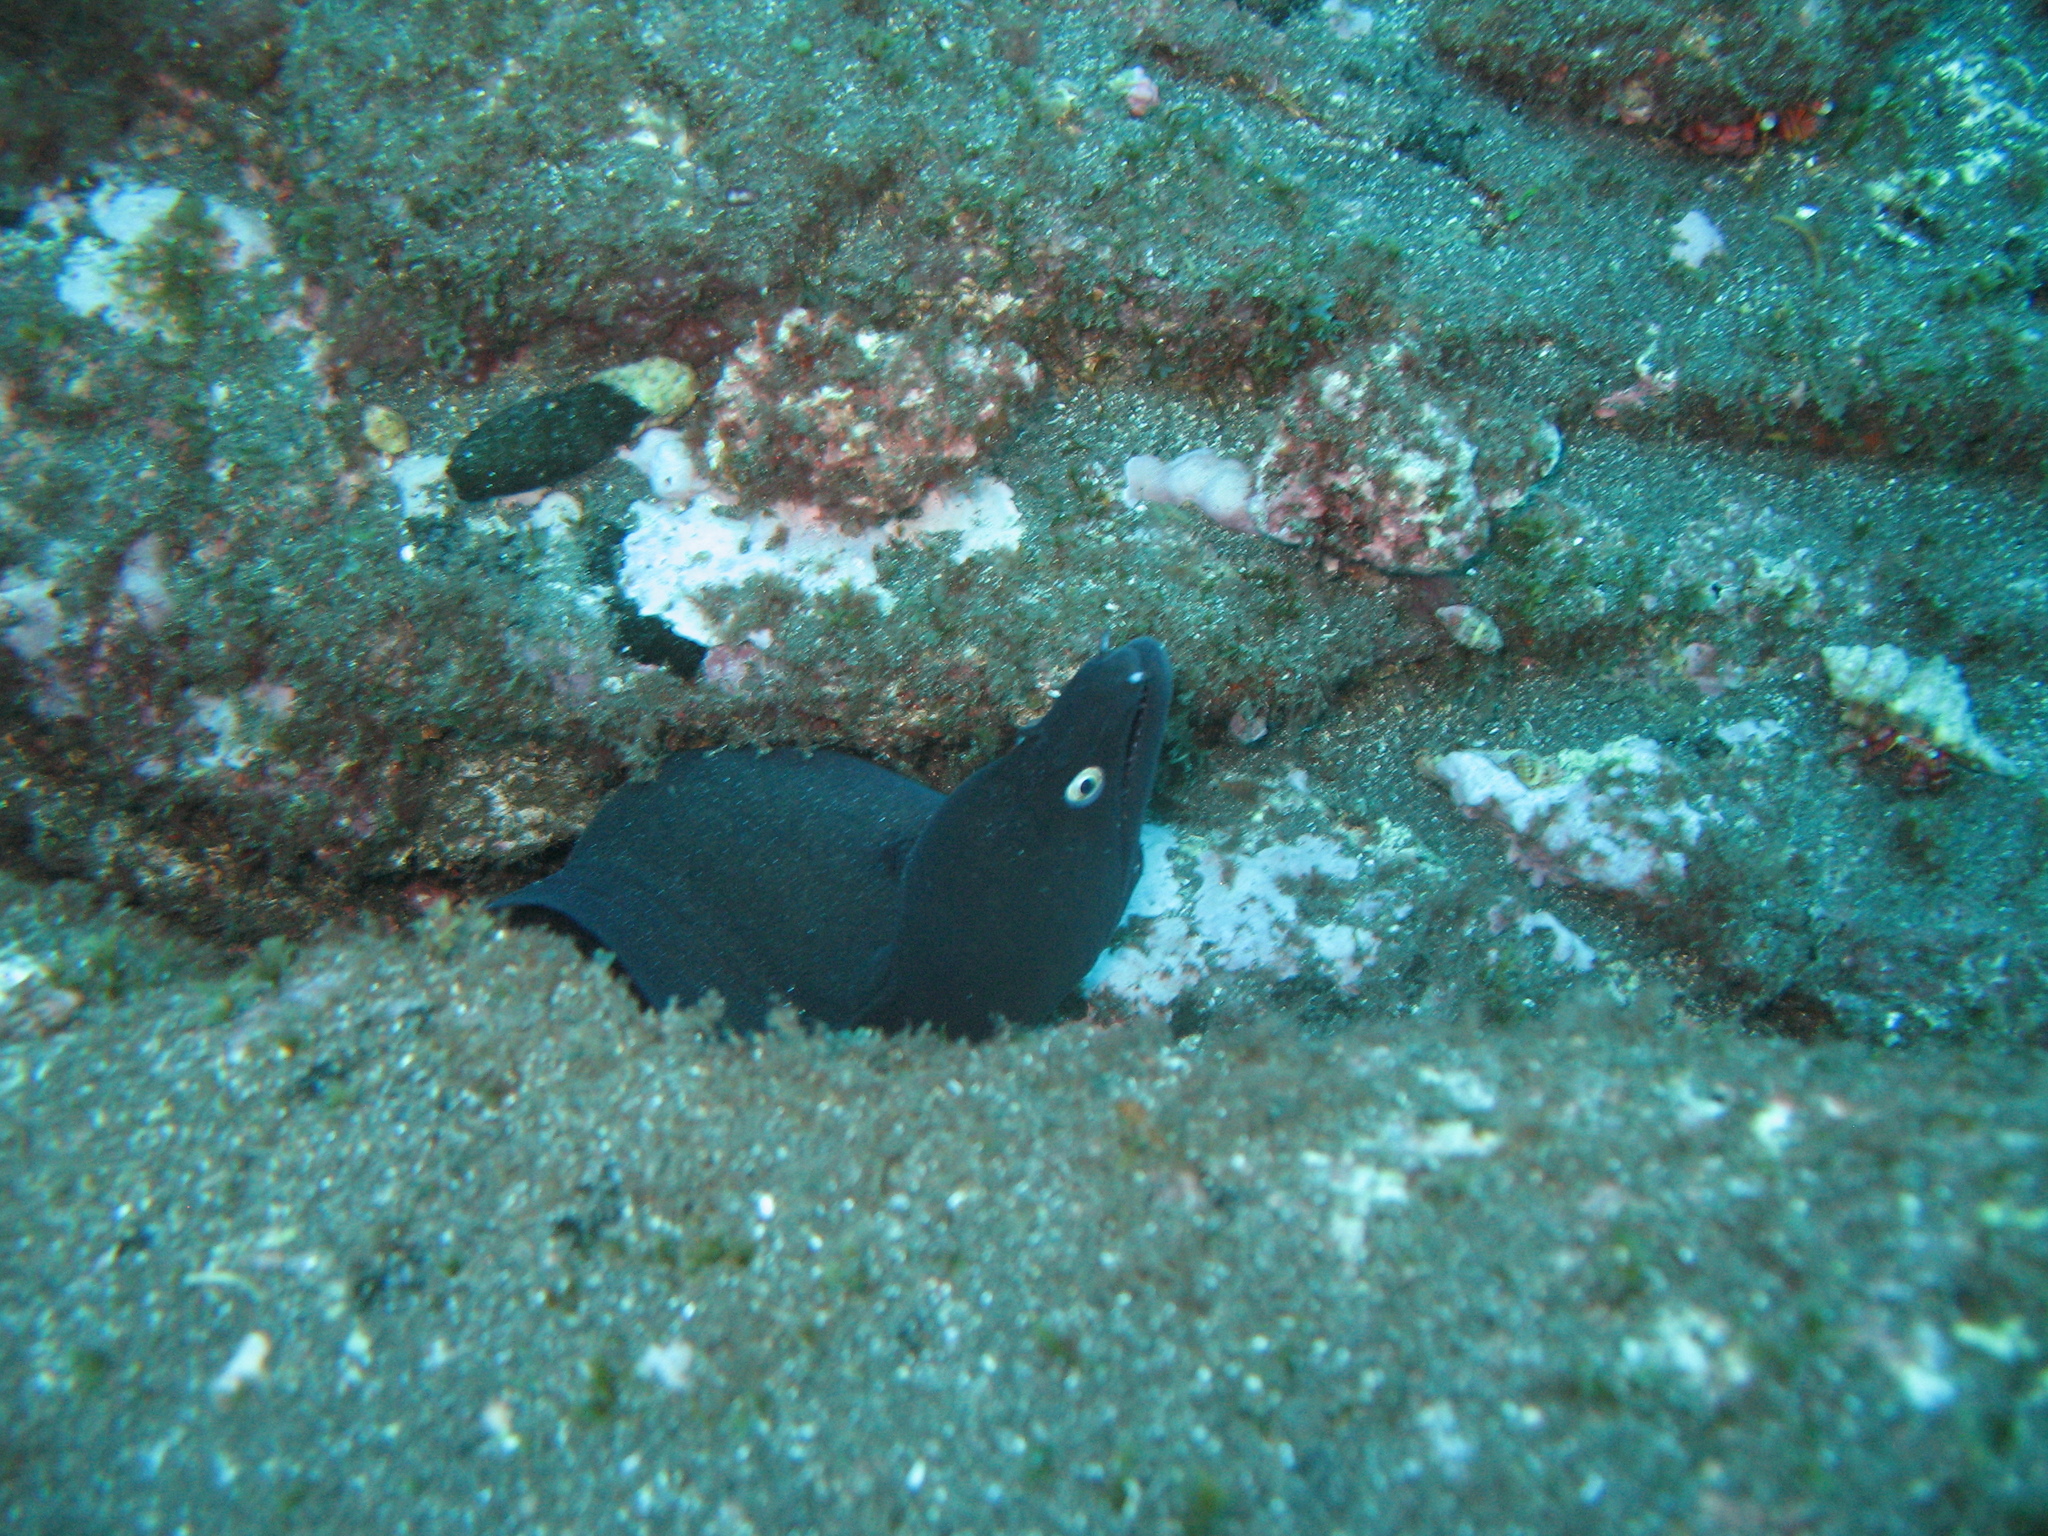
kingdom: Animalia
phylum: Chordata
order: Anguilliformes
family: Muraenidae
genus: Muraena
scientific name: Muraena augusti
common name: Mediterranean moray
